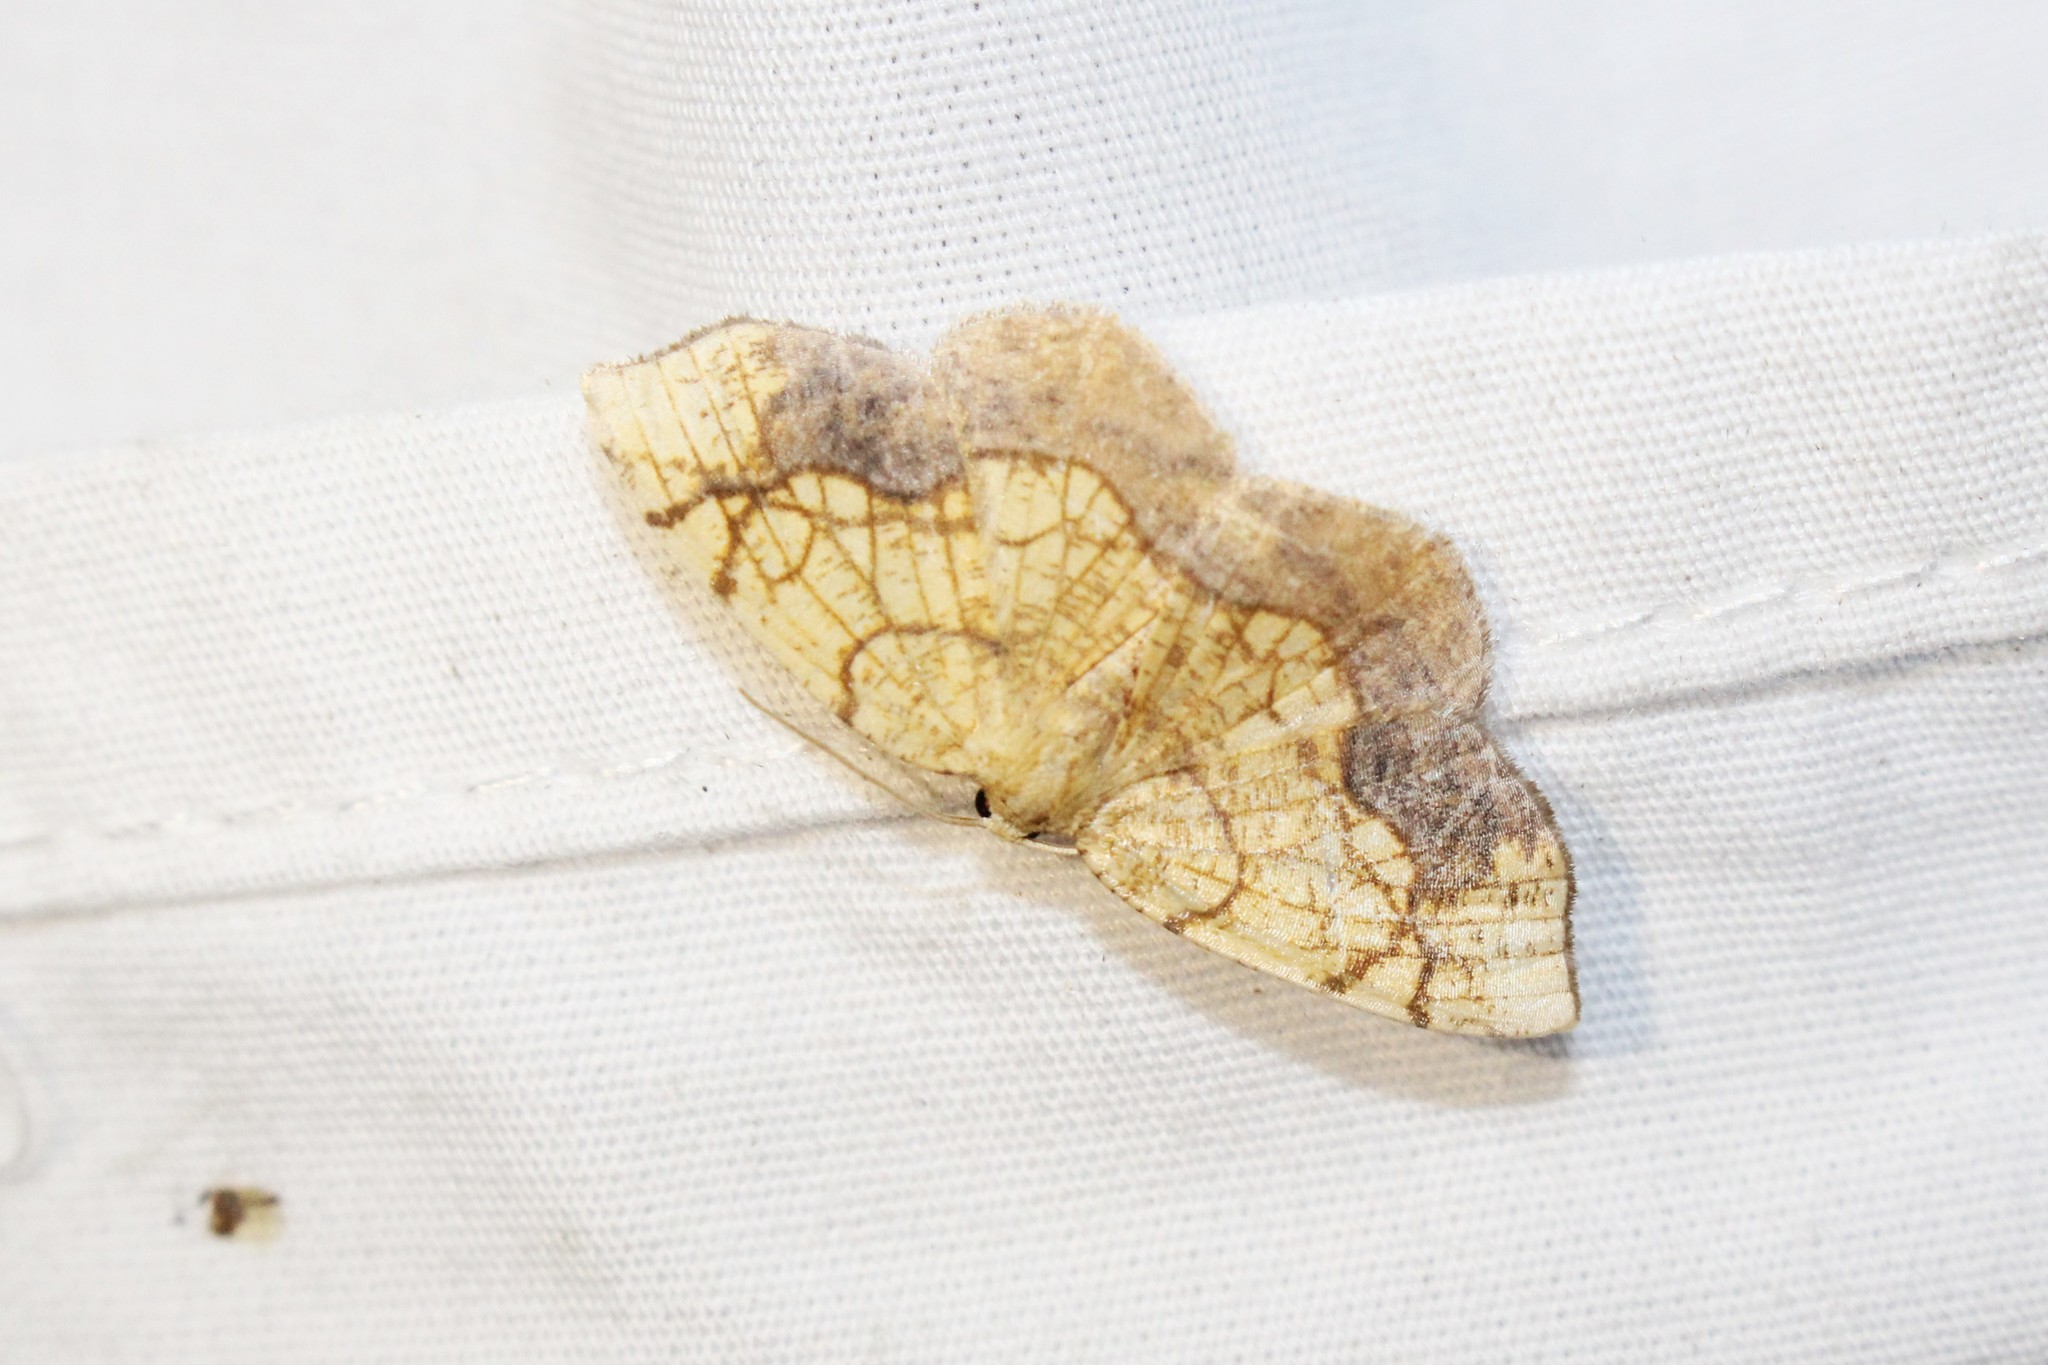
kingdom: Animalia
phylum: Arthropoda
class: Insecta
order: Lepidoptera
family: Geometridae
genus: Nematocampa
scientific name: Nematocampa resistaria
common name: Horned spanworm moth
